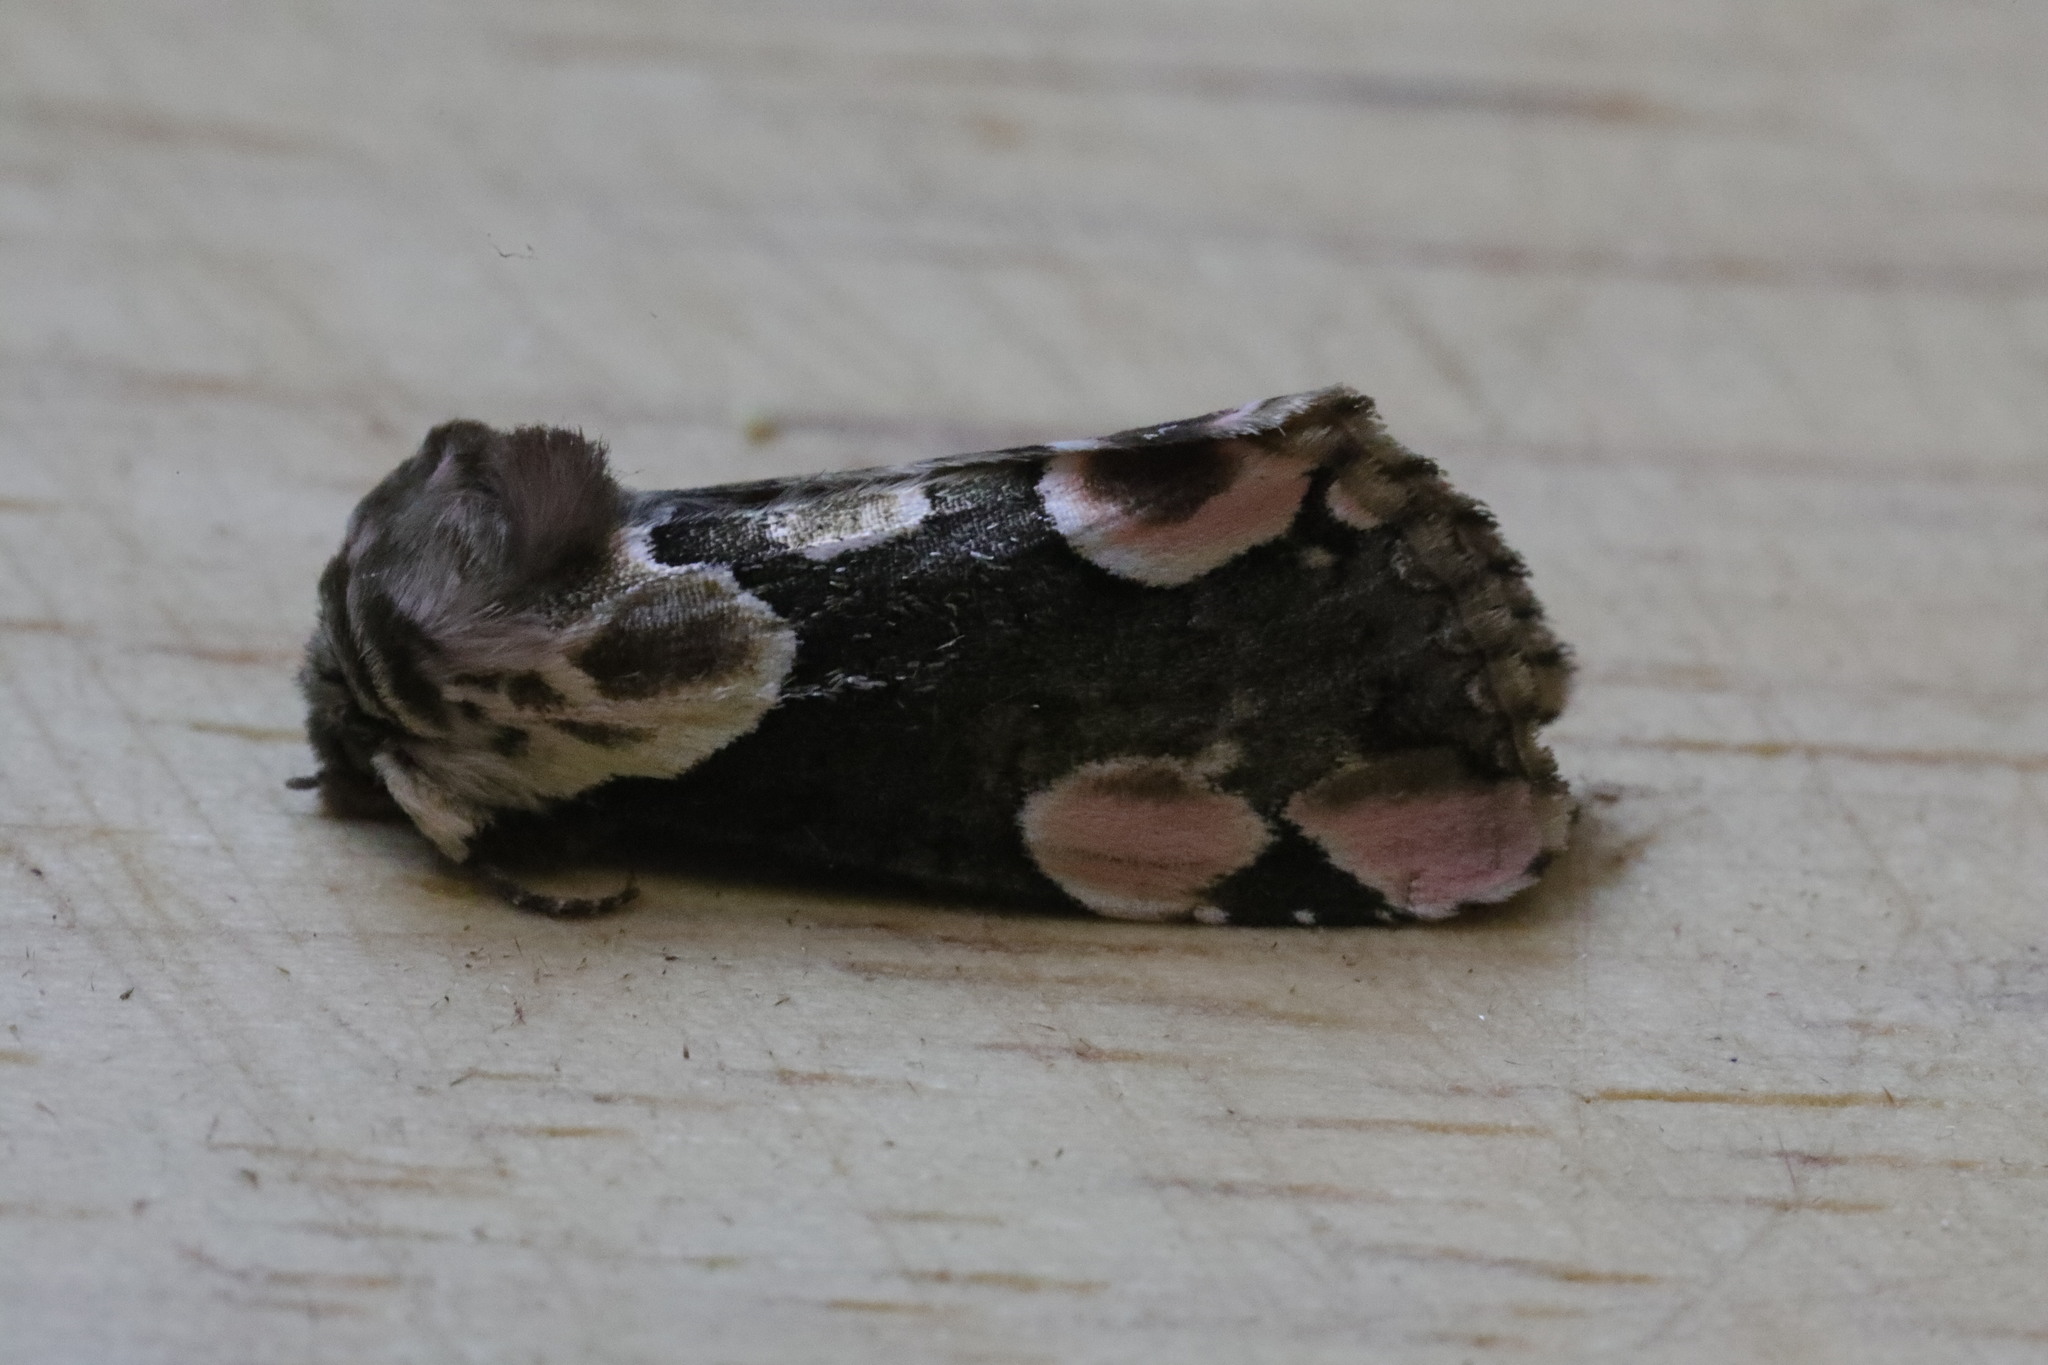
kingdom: Animalia
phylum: Arthropoda
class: Insecta
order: Lepidoptera
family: Drepanidae
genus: Thyatira
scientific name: Thyatira batis
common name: Peach blossom
